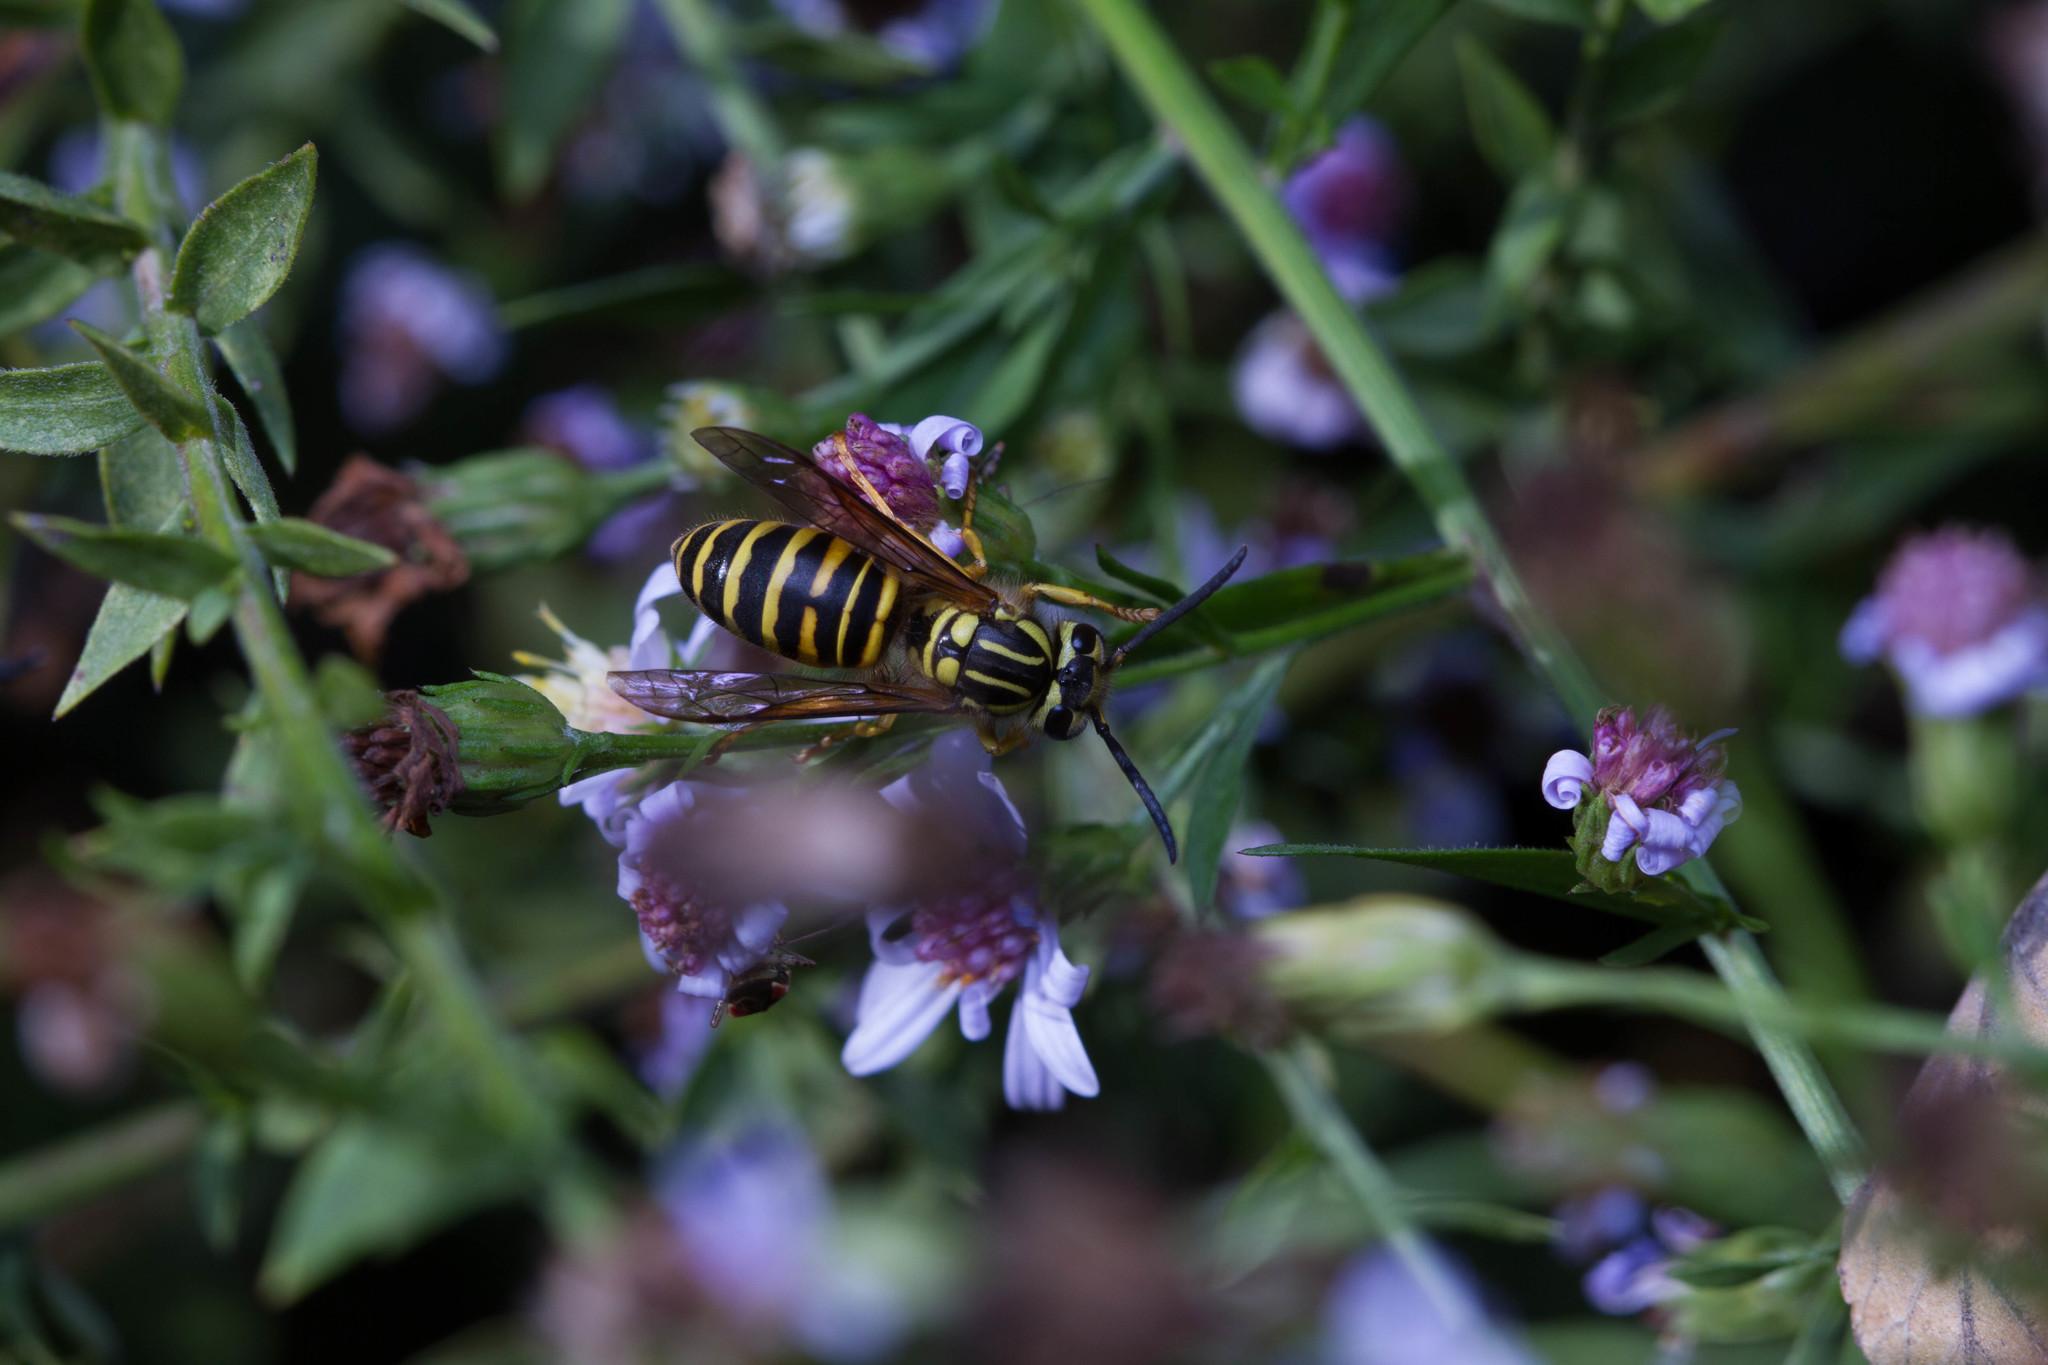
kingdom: Animalia
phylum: Arthropoda
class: Insecta
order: Hymenoptera
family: Vespidae
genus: Vespula
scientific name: Vespula squamosa
